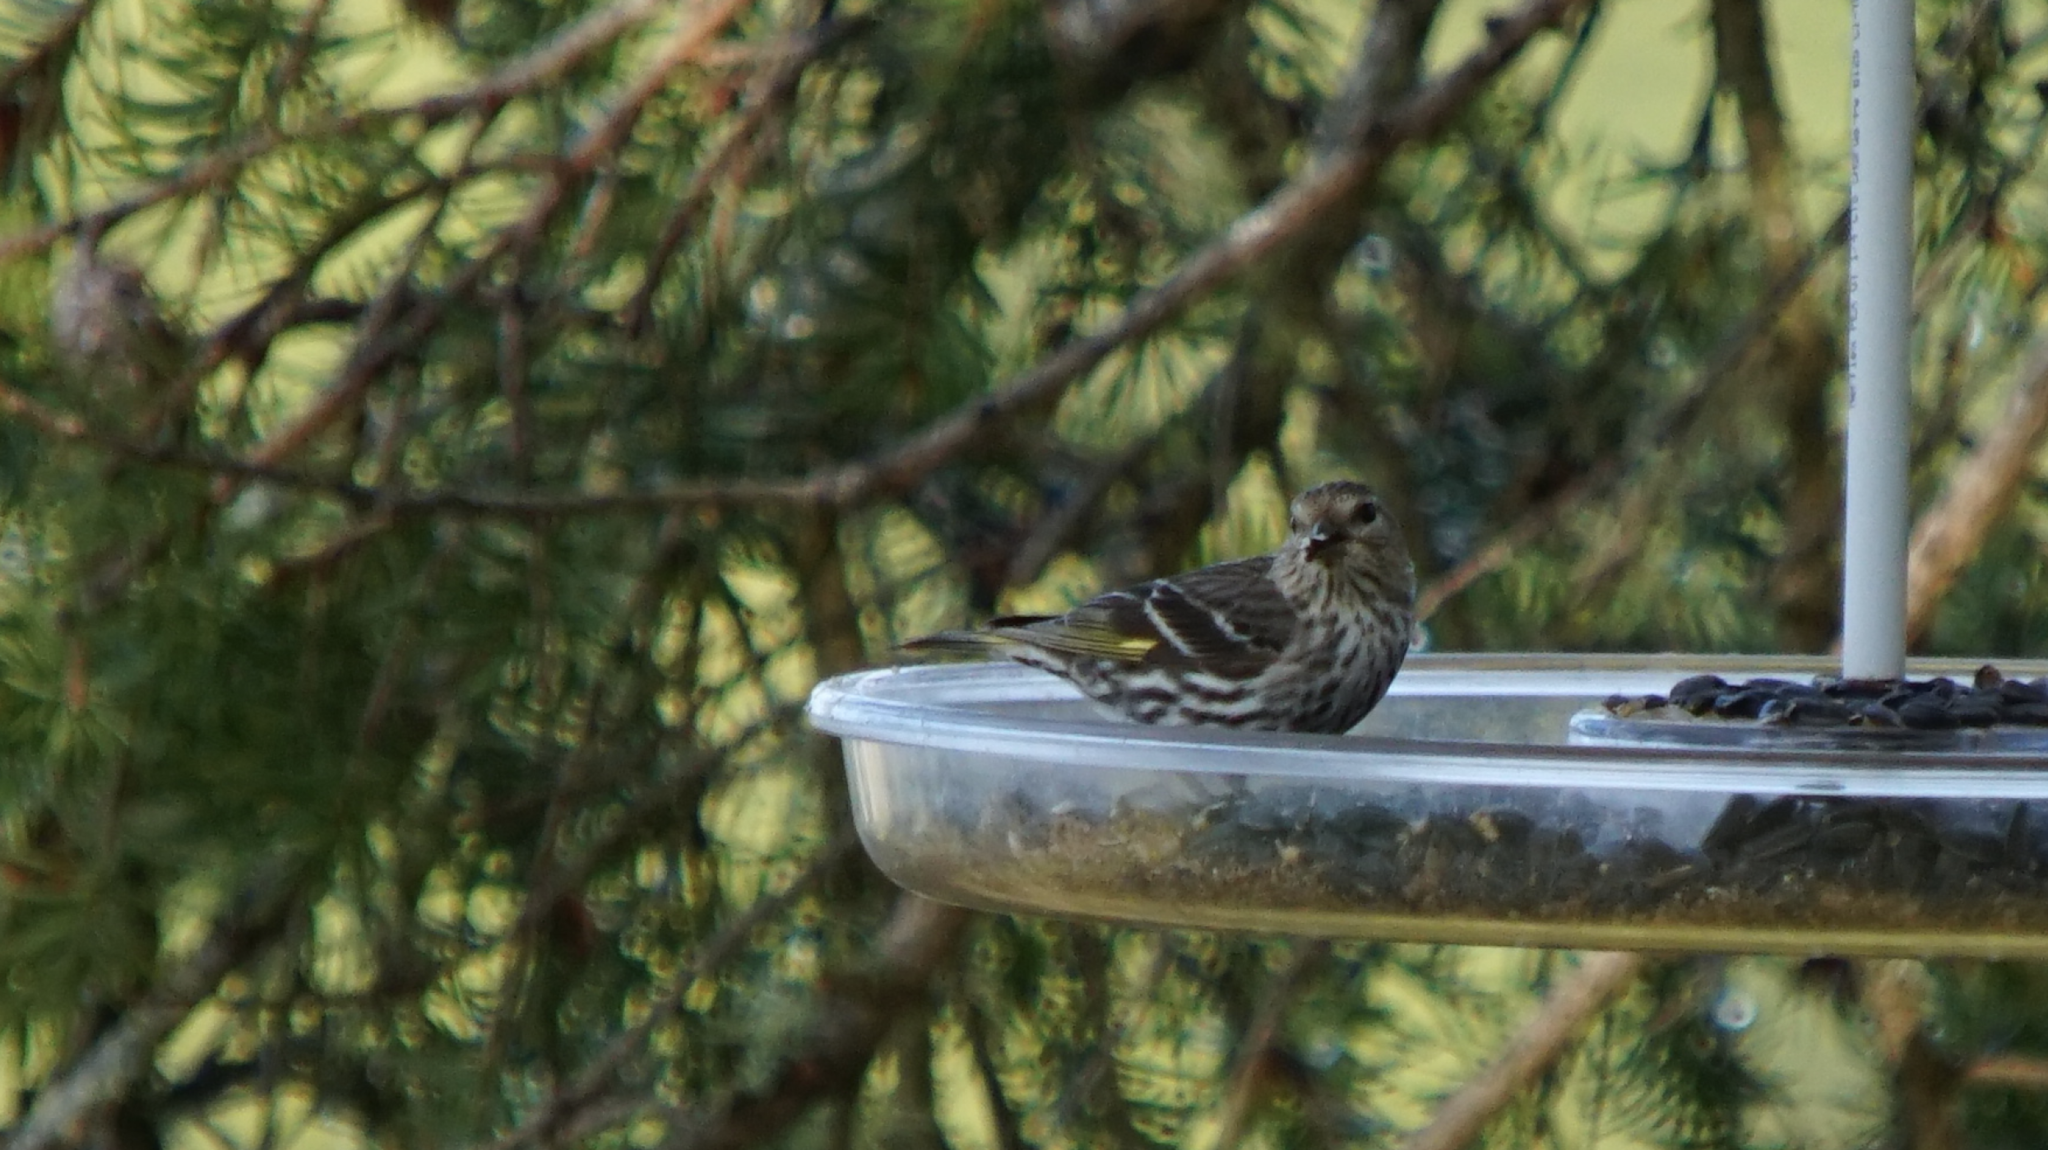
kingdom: Animalia
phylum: Chordata
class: Aves
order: Passeriformes
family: Fringillidae
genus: Spinus
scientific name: Spinus pinus
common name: Pine siskin
